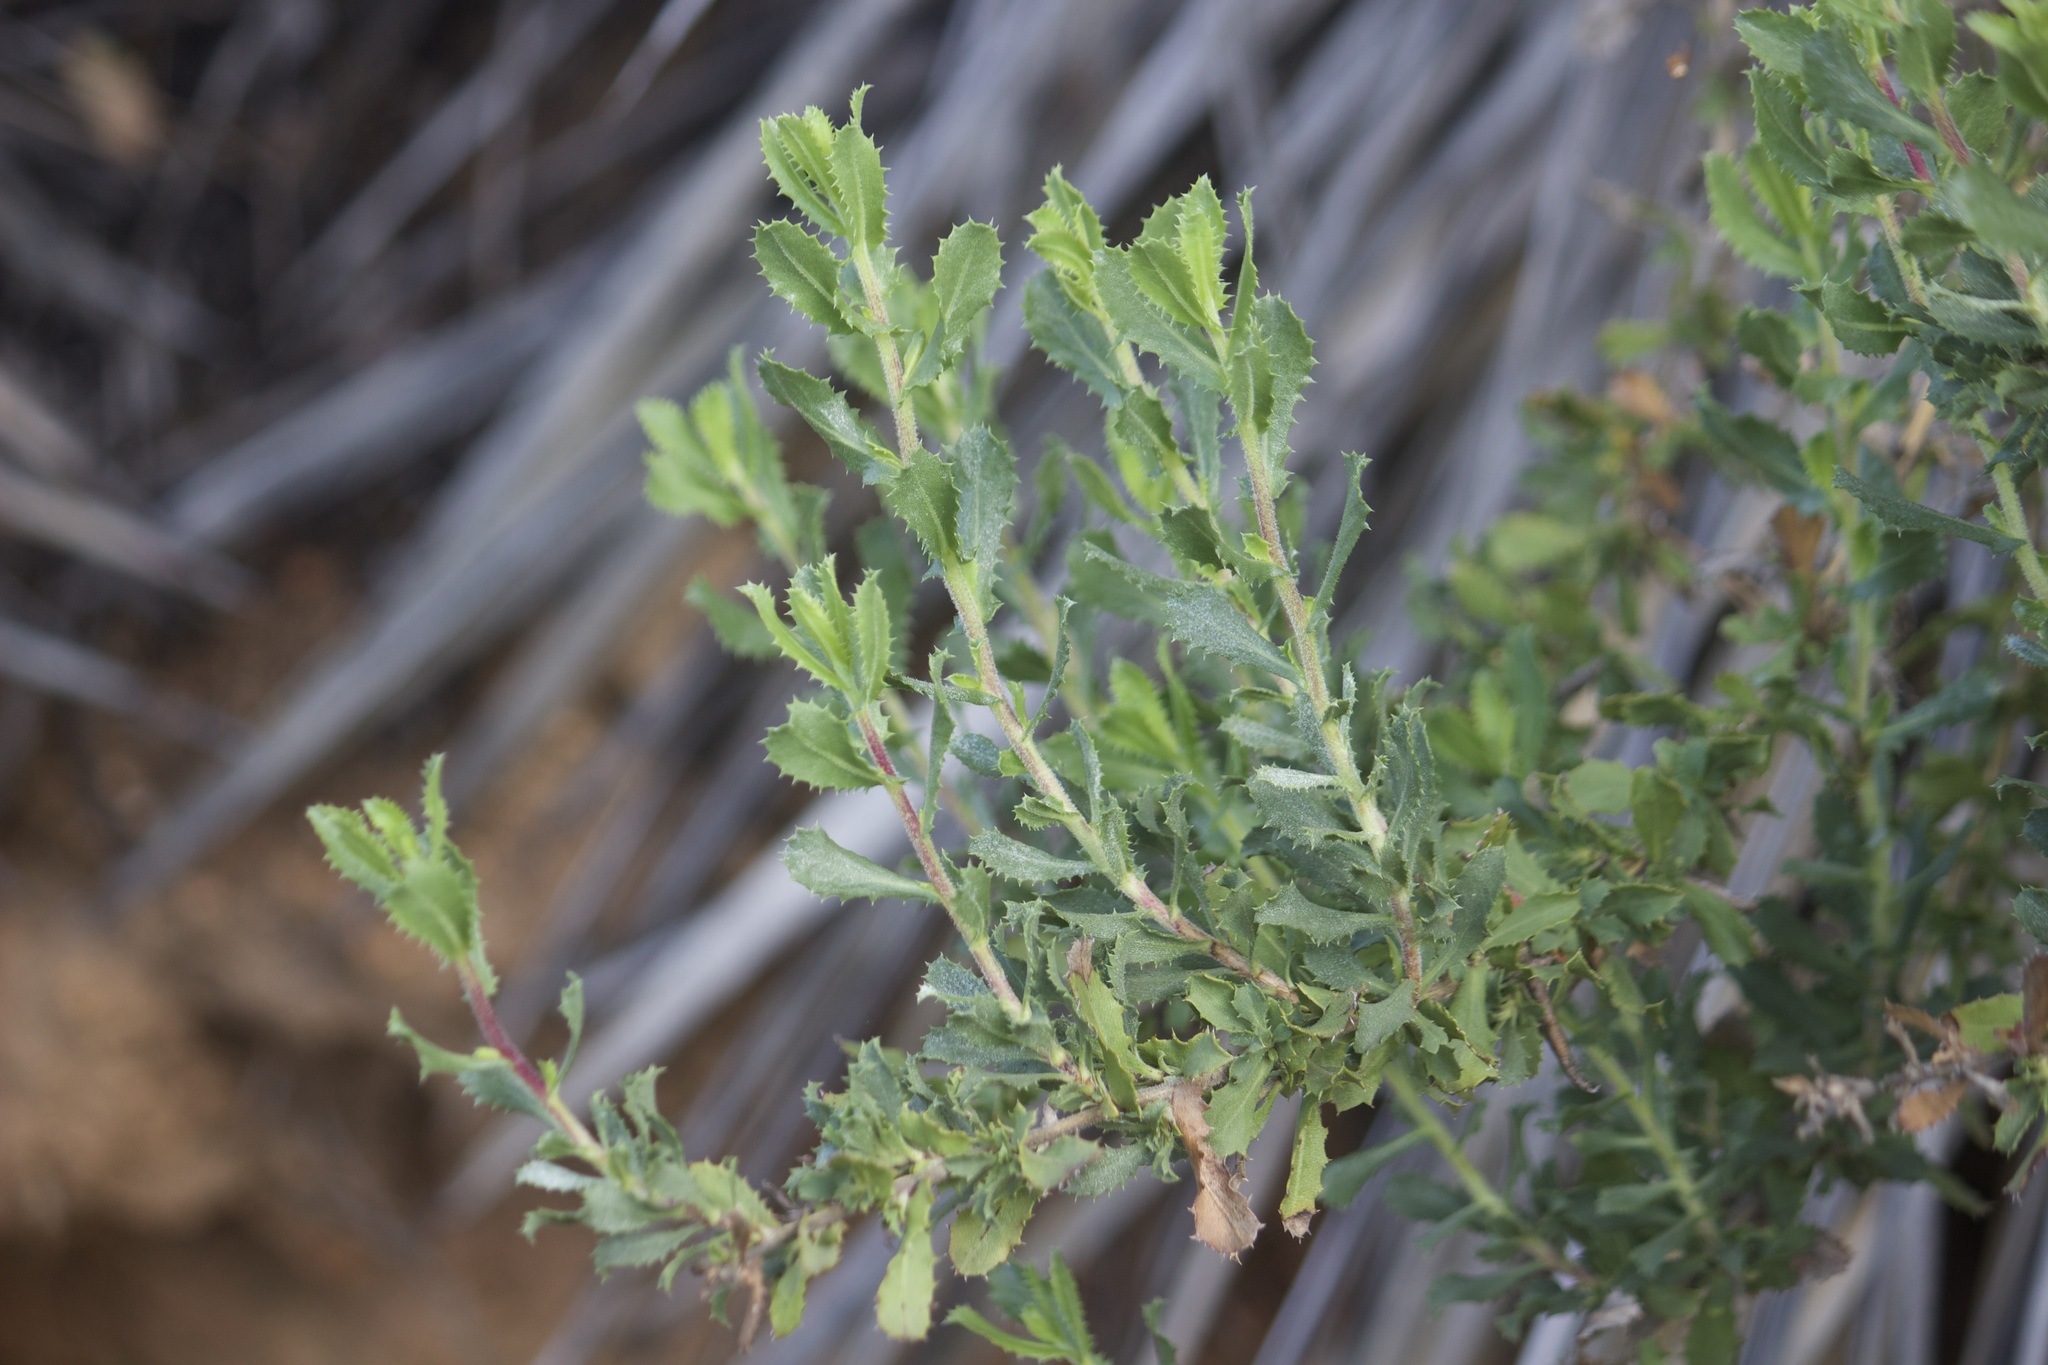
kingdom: Plantae
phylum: Tracheophyta
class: Magnoliopsida
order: Asterales
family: Asteraceae
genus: Isocoma
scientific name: Isocoma menziesii
